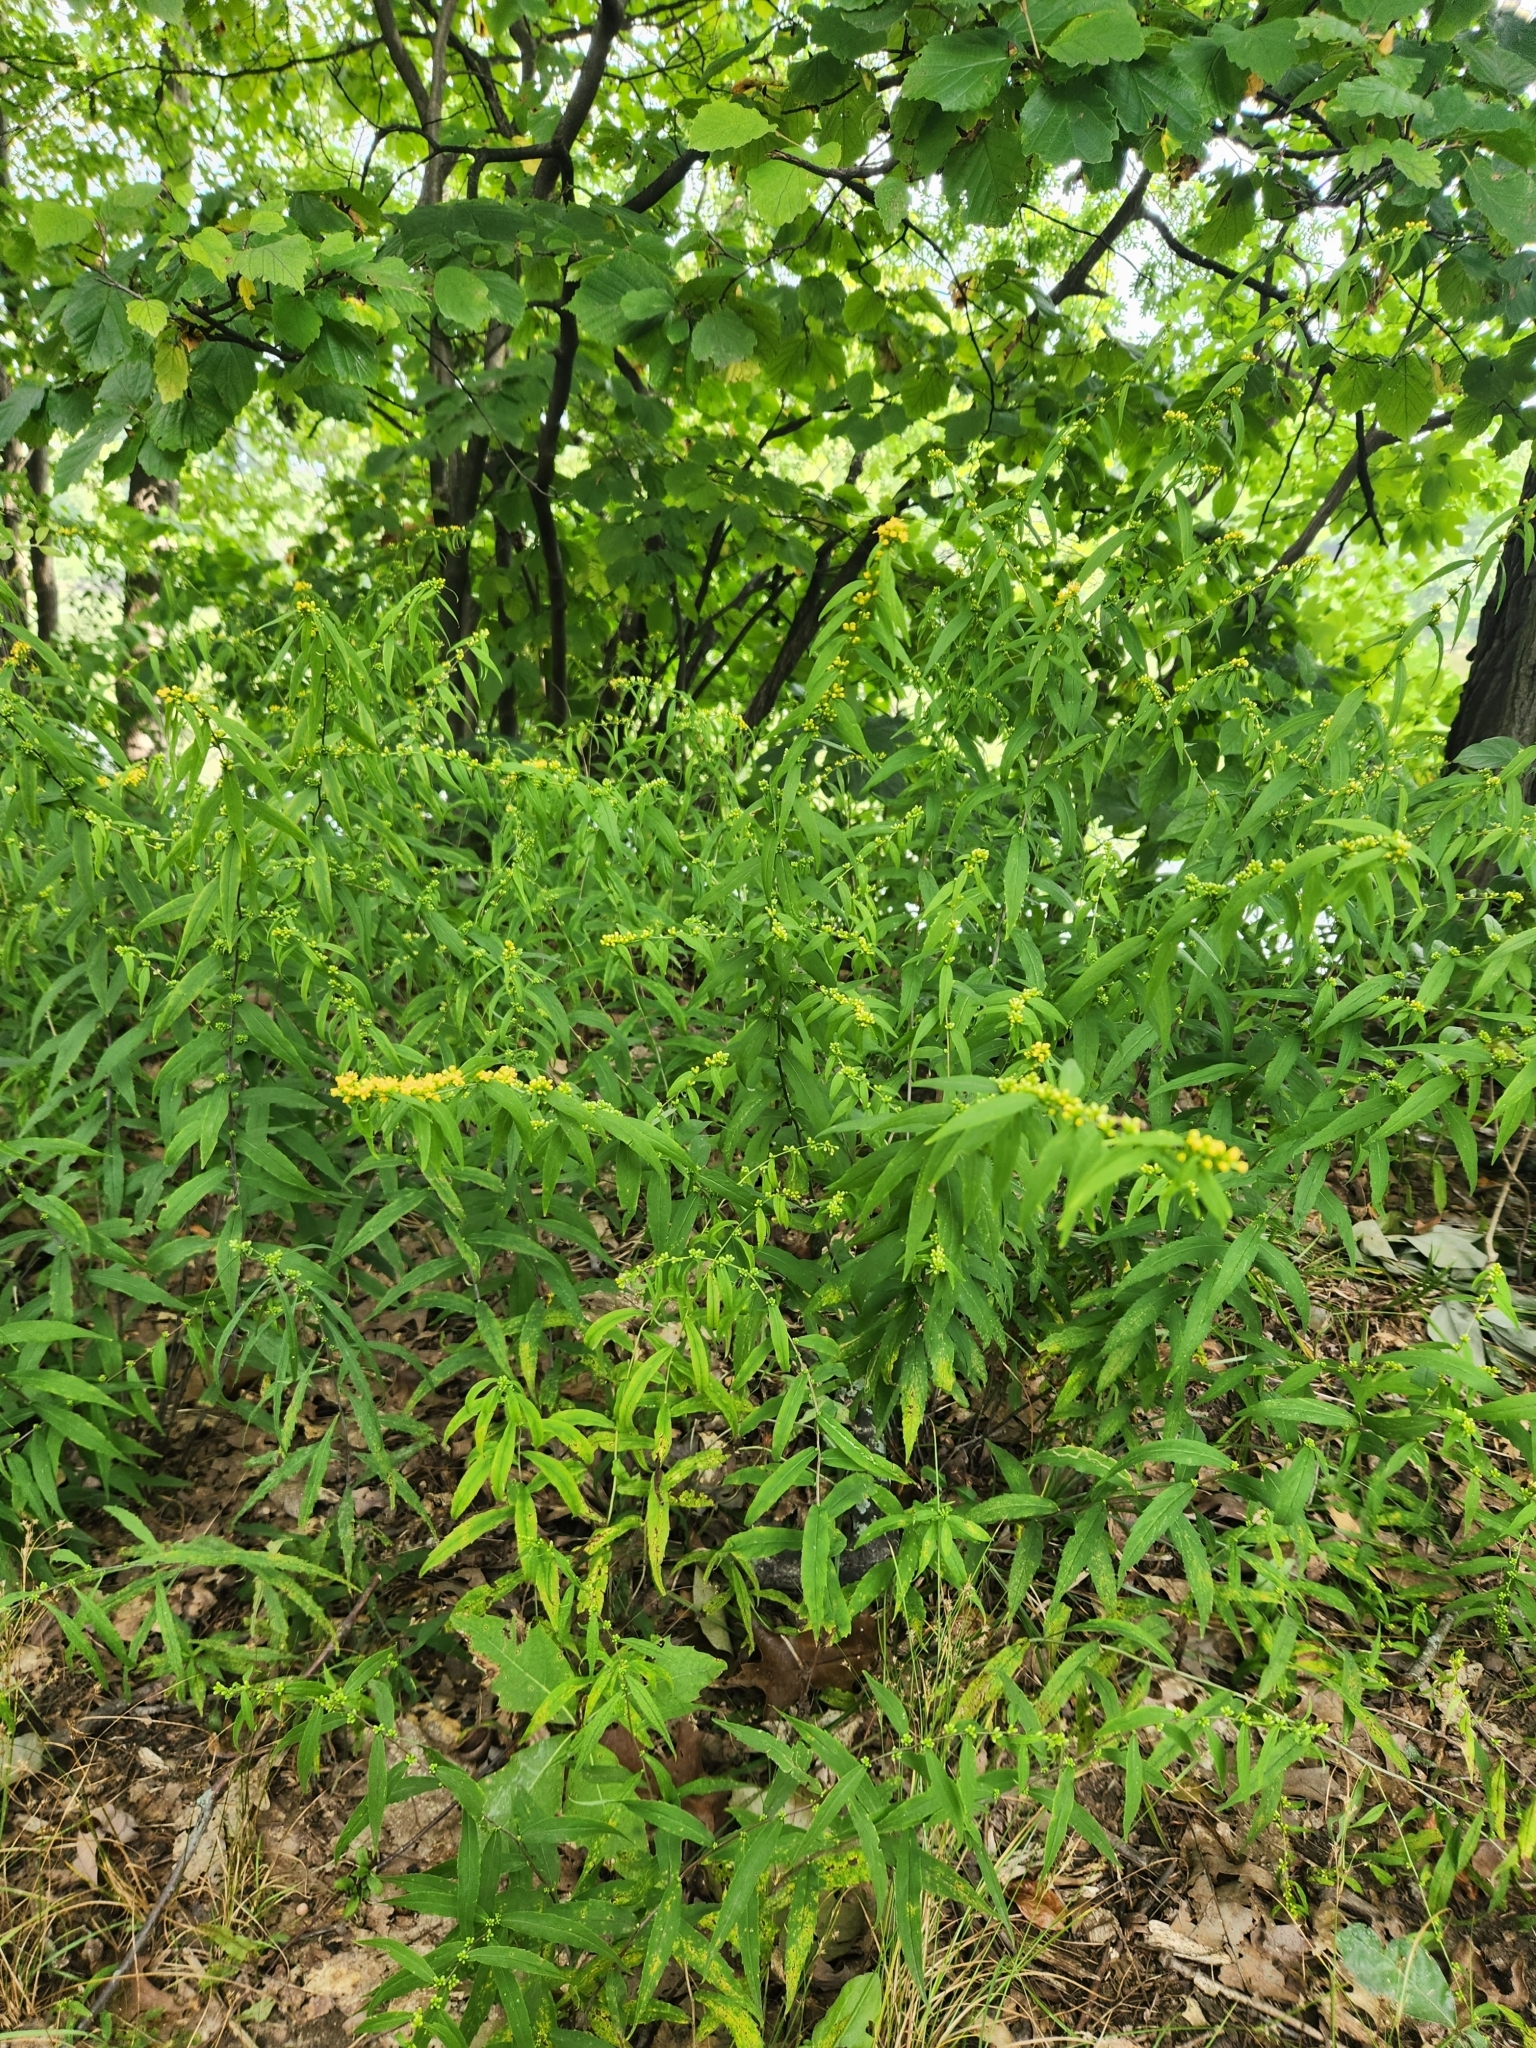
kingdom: Plantae
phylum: Tracheophyta
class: Magnoliopsida
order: Asterales
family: Asteraceae
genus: Solidago
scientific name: Solidago caesia
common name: Woodland goldenrod
